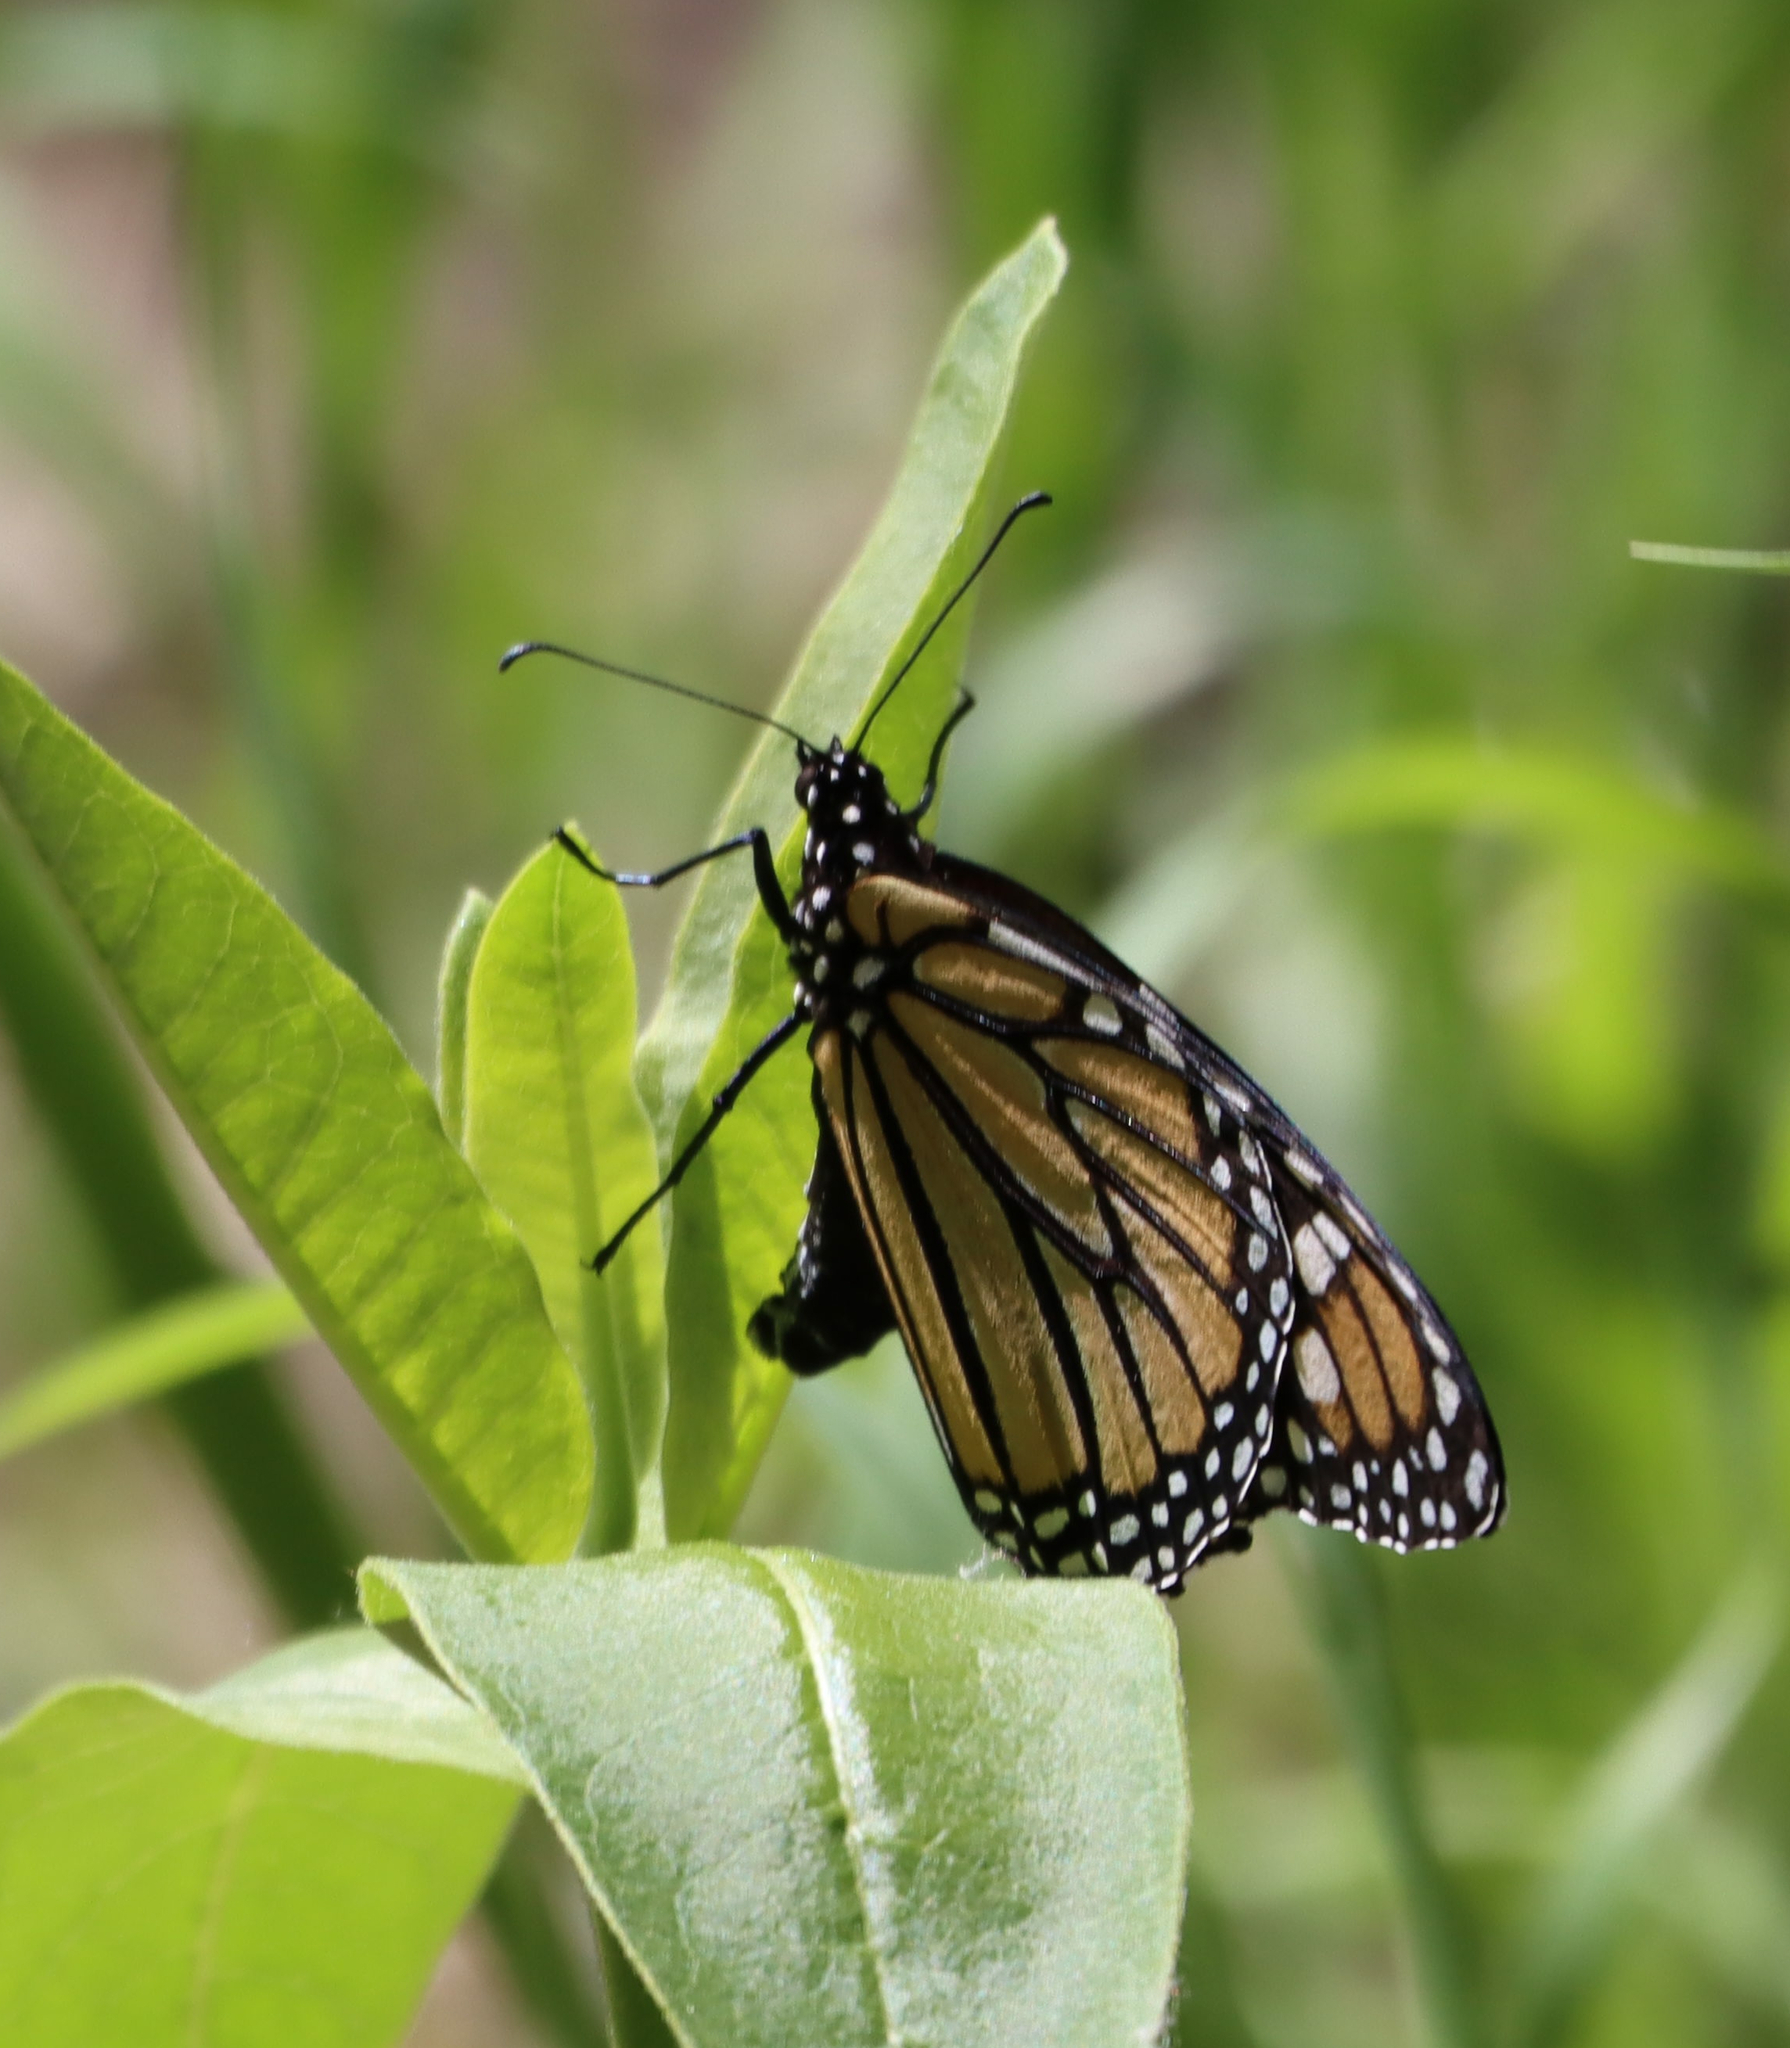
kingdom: Animalia
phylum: Arthropoda
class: Insecta
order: Lepidoptera
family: Nymphalidae
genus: Danaus
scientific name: Danaus plexippus
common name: Monarch
